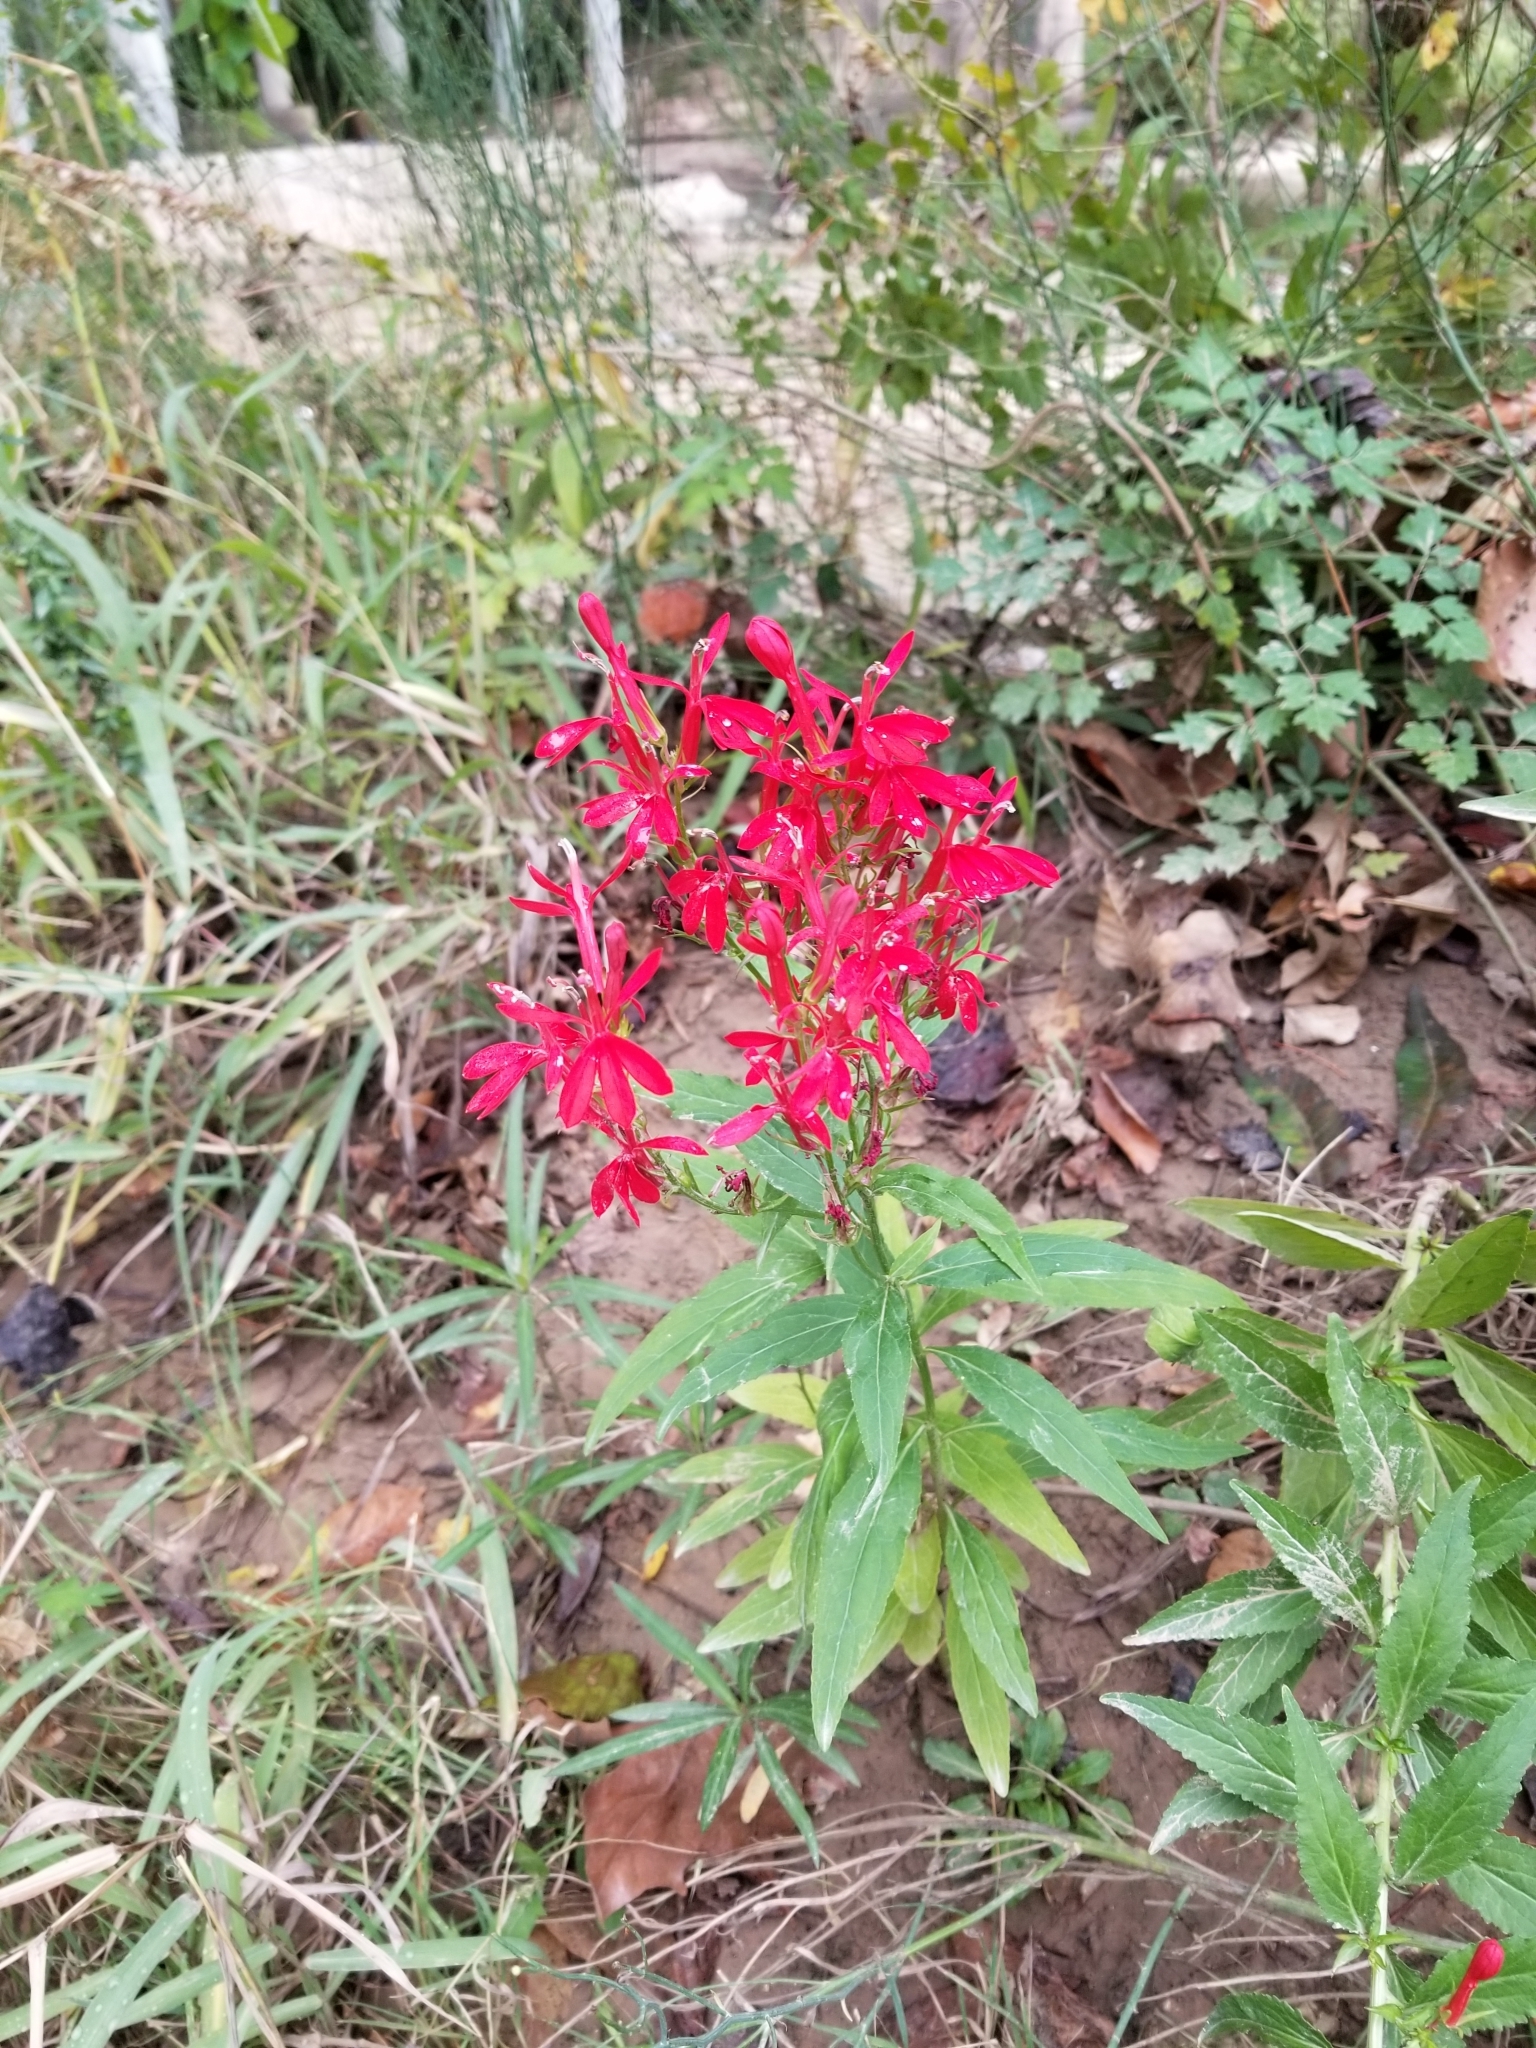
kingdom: Plantae
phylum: Tracheophyta
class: Magnoliopsida
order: Asterales
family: Campanulaceae
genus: Lobelia
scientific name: Lobelia cardinalis
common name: Cardinal flower
